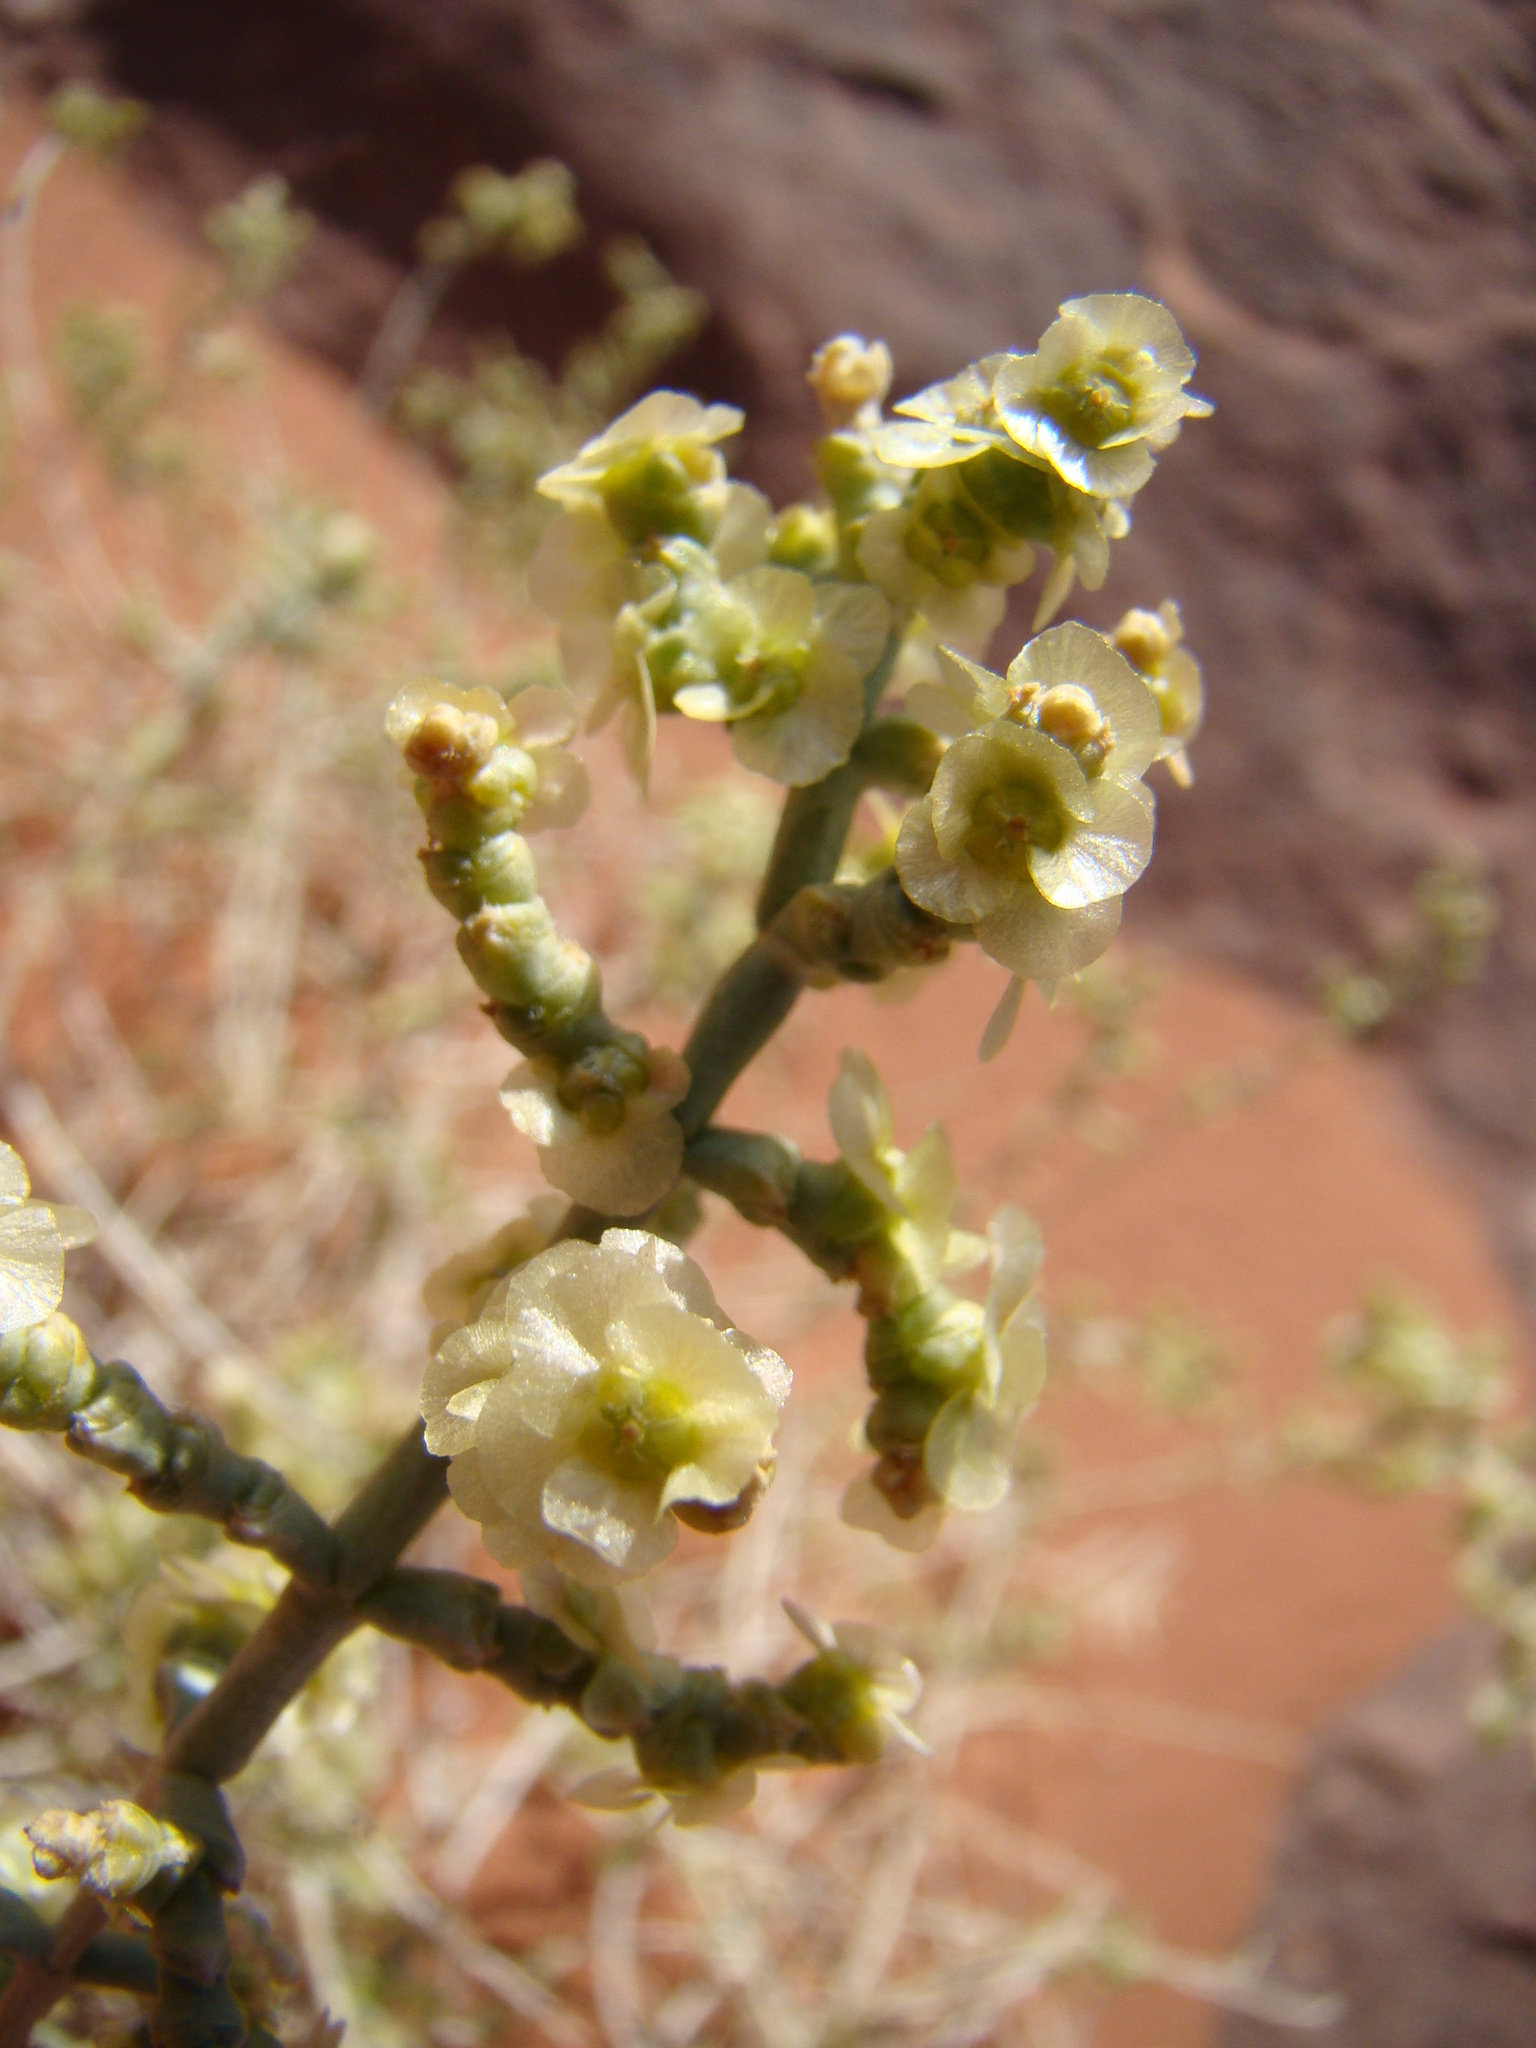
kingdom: Plantae
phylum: Tracheophyta
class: Magnoliopsida
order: Caryophyllales
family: Amaranthaceae
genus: Anabasis
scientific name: Anabasis articulata
